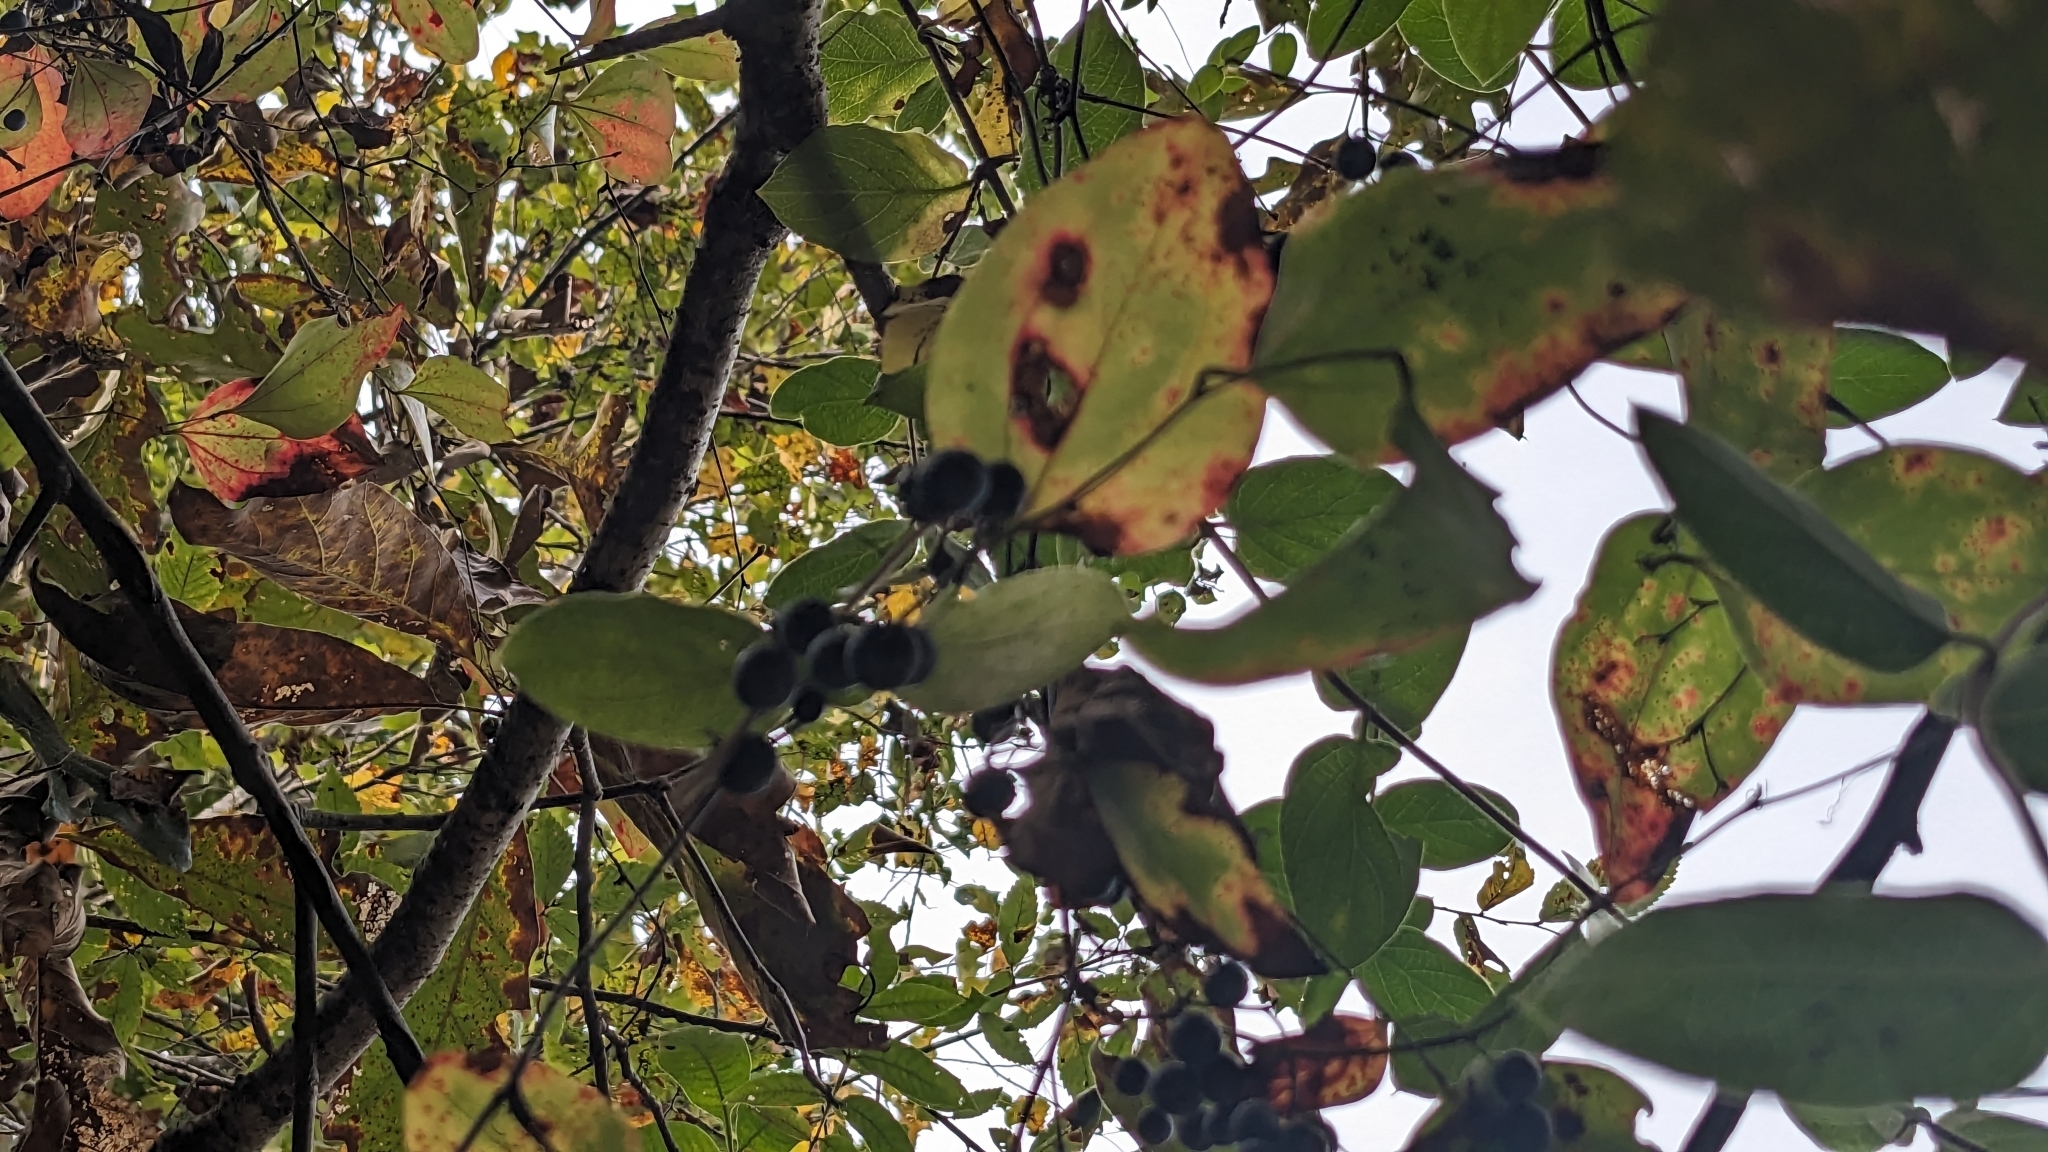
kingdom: Plantae
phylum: Tracheophyta
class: Liliopsida
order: Liliales
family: Smilacaceae
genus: Smilax
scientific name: Smilax glauca
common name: Cat greenbrier
